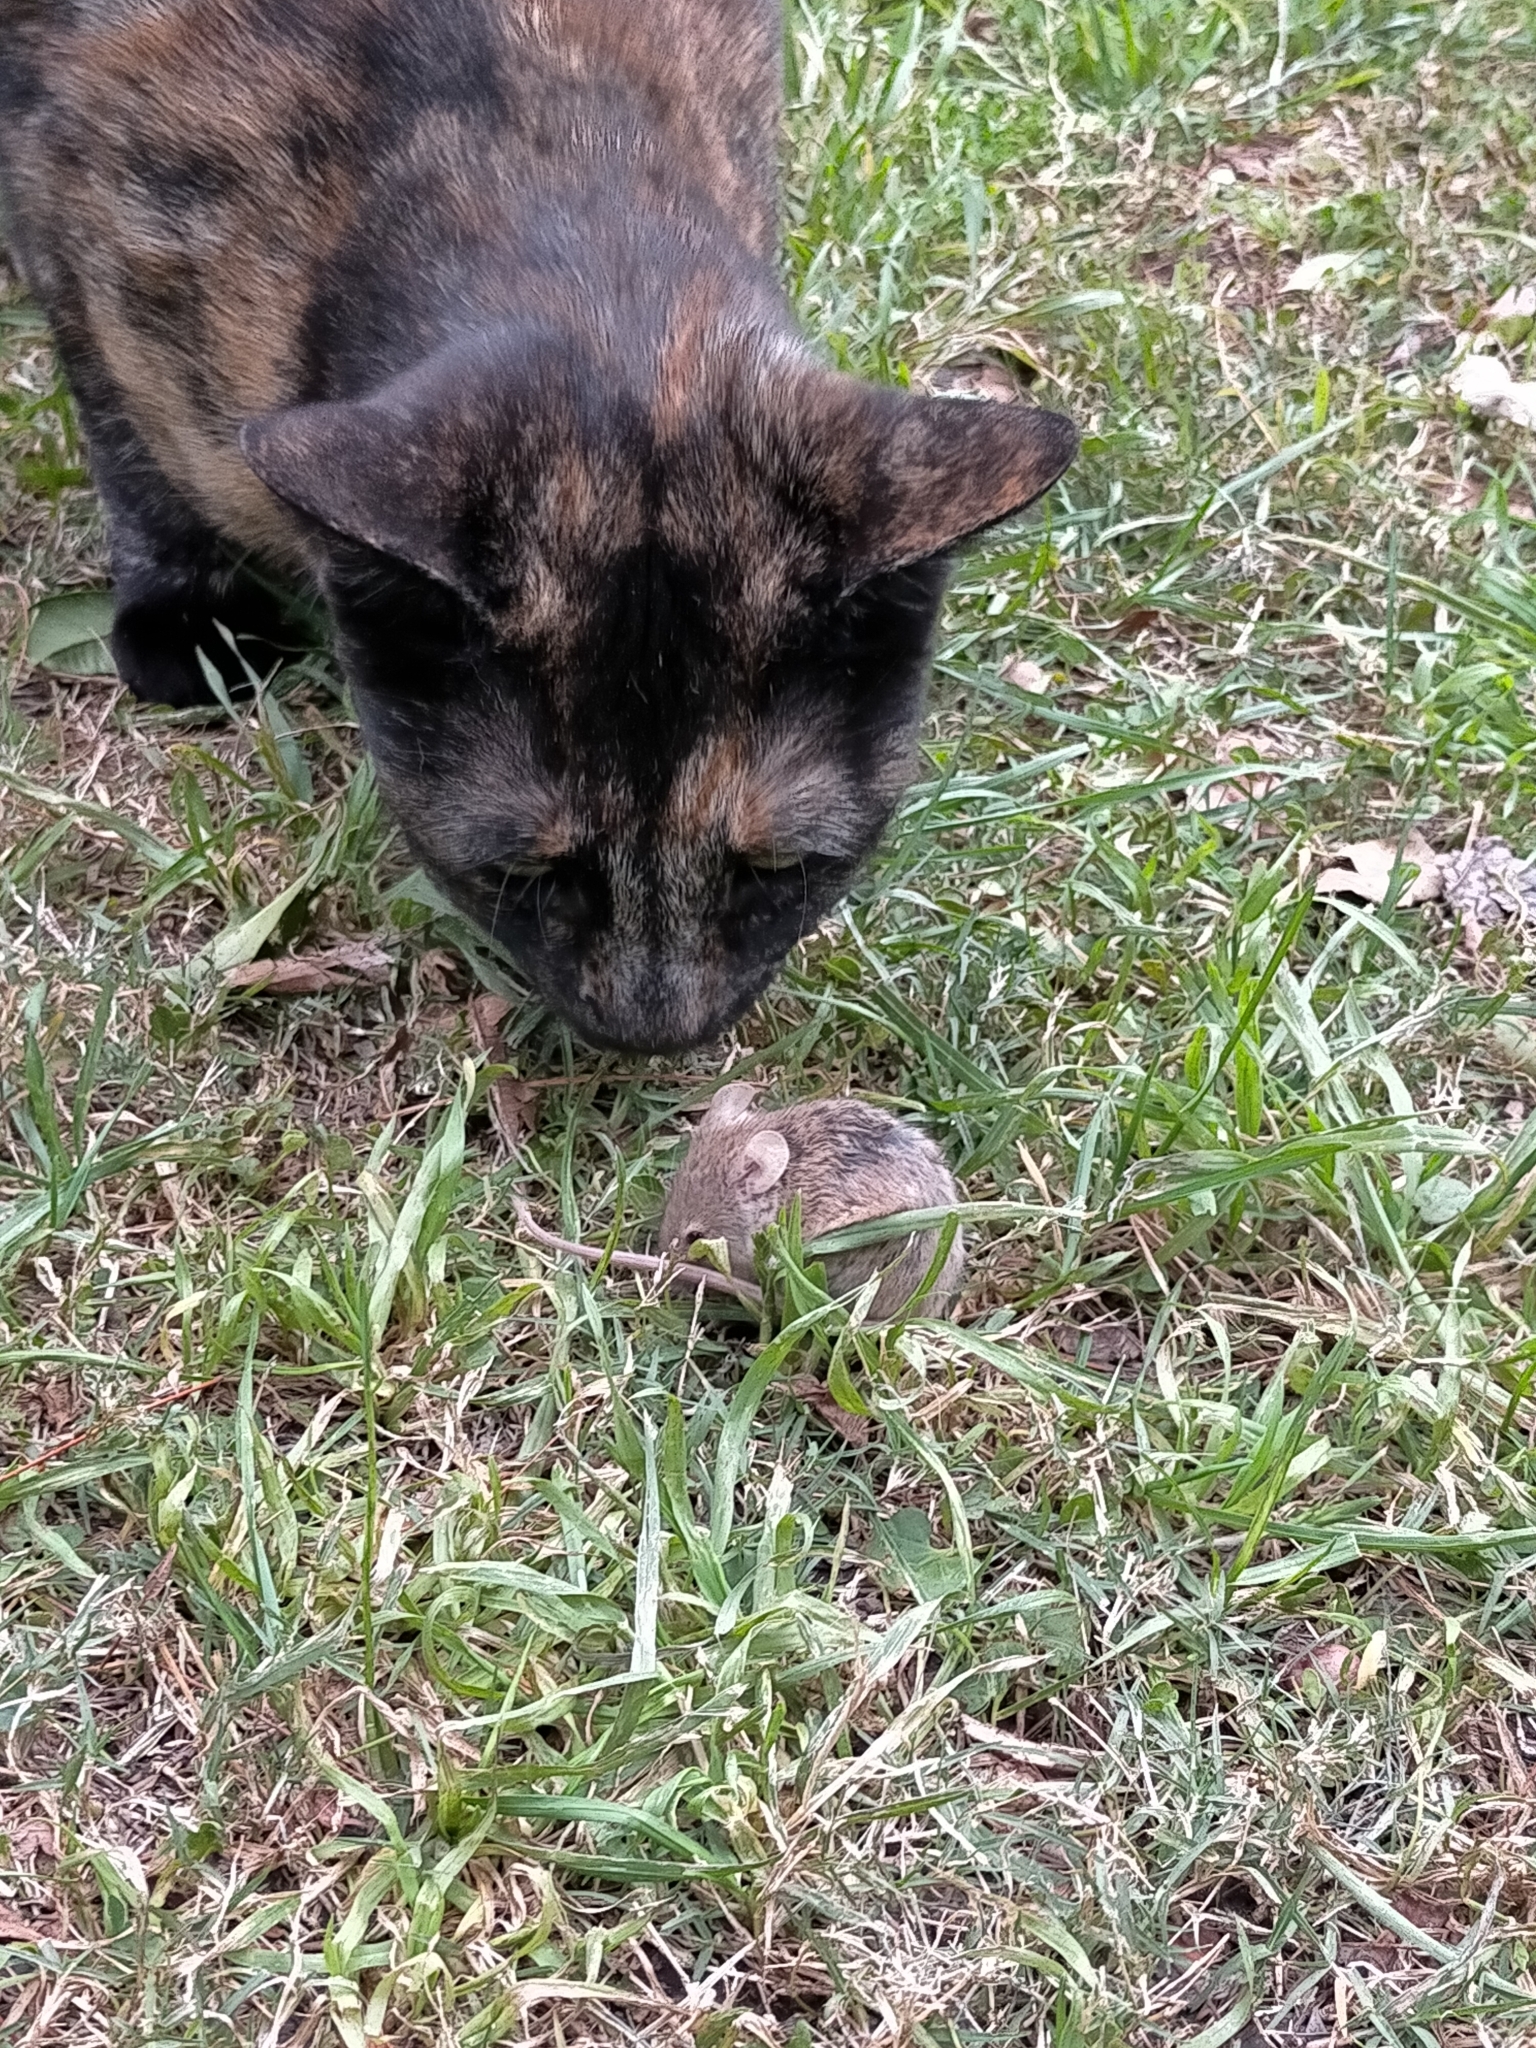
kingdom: Animalia
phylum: Chordata
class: Mammalia
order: Rodentia
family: Muridae
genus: Mus
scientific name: Mus musculus
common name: House mouse
